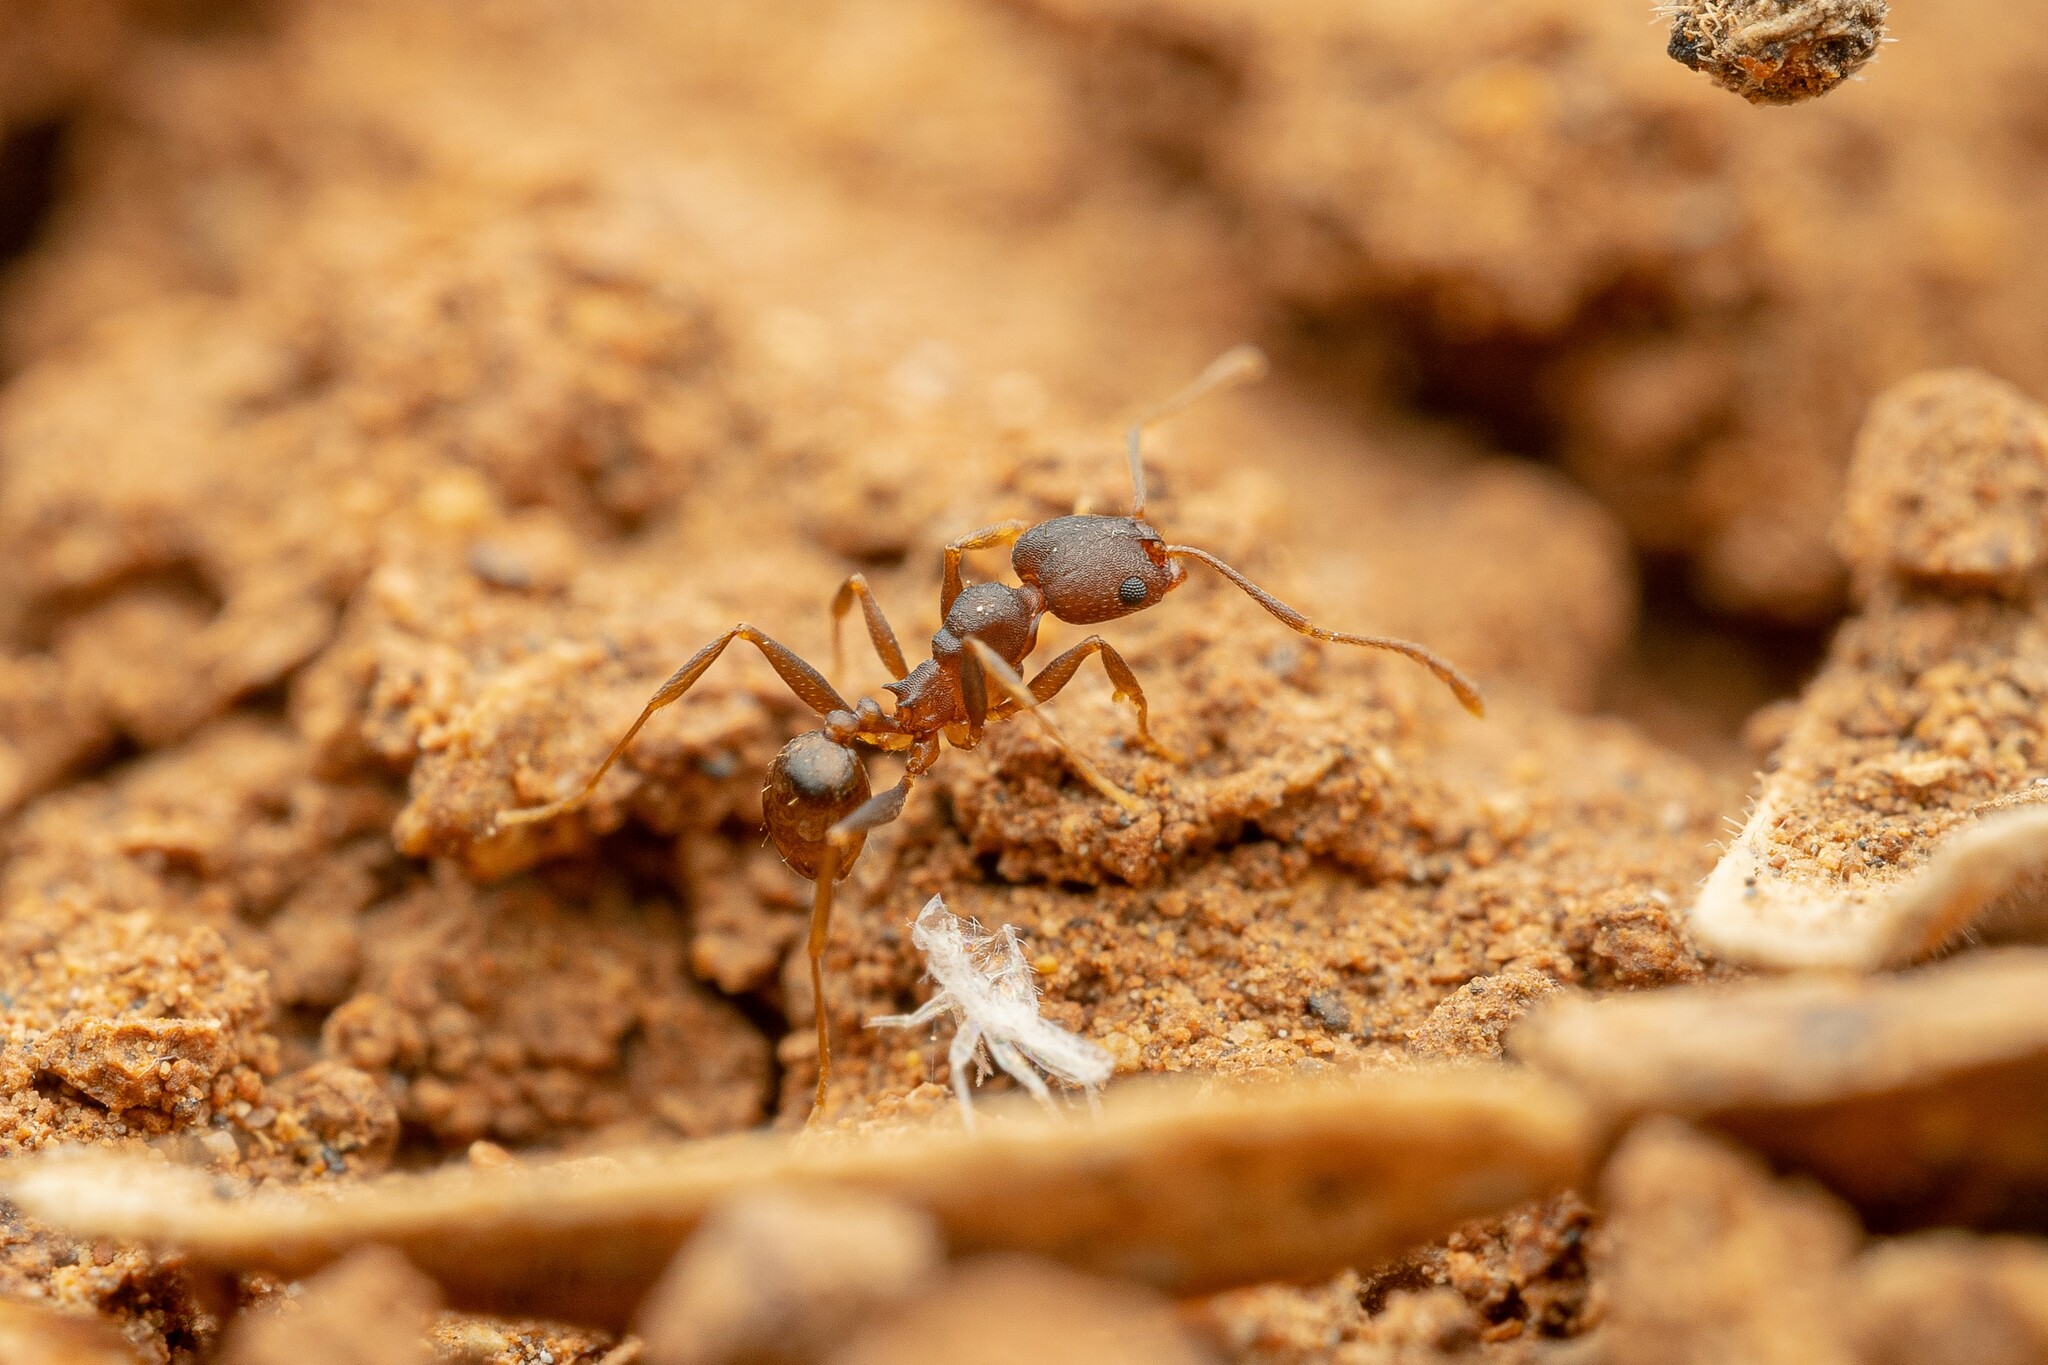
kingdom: Animalia
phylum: Arthropoda
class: Insecta
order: Hymenoptera
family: Formicidae
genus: Pheidole
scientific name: Pheidole
